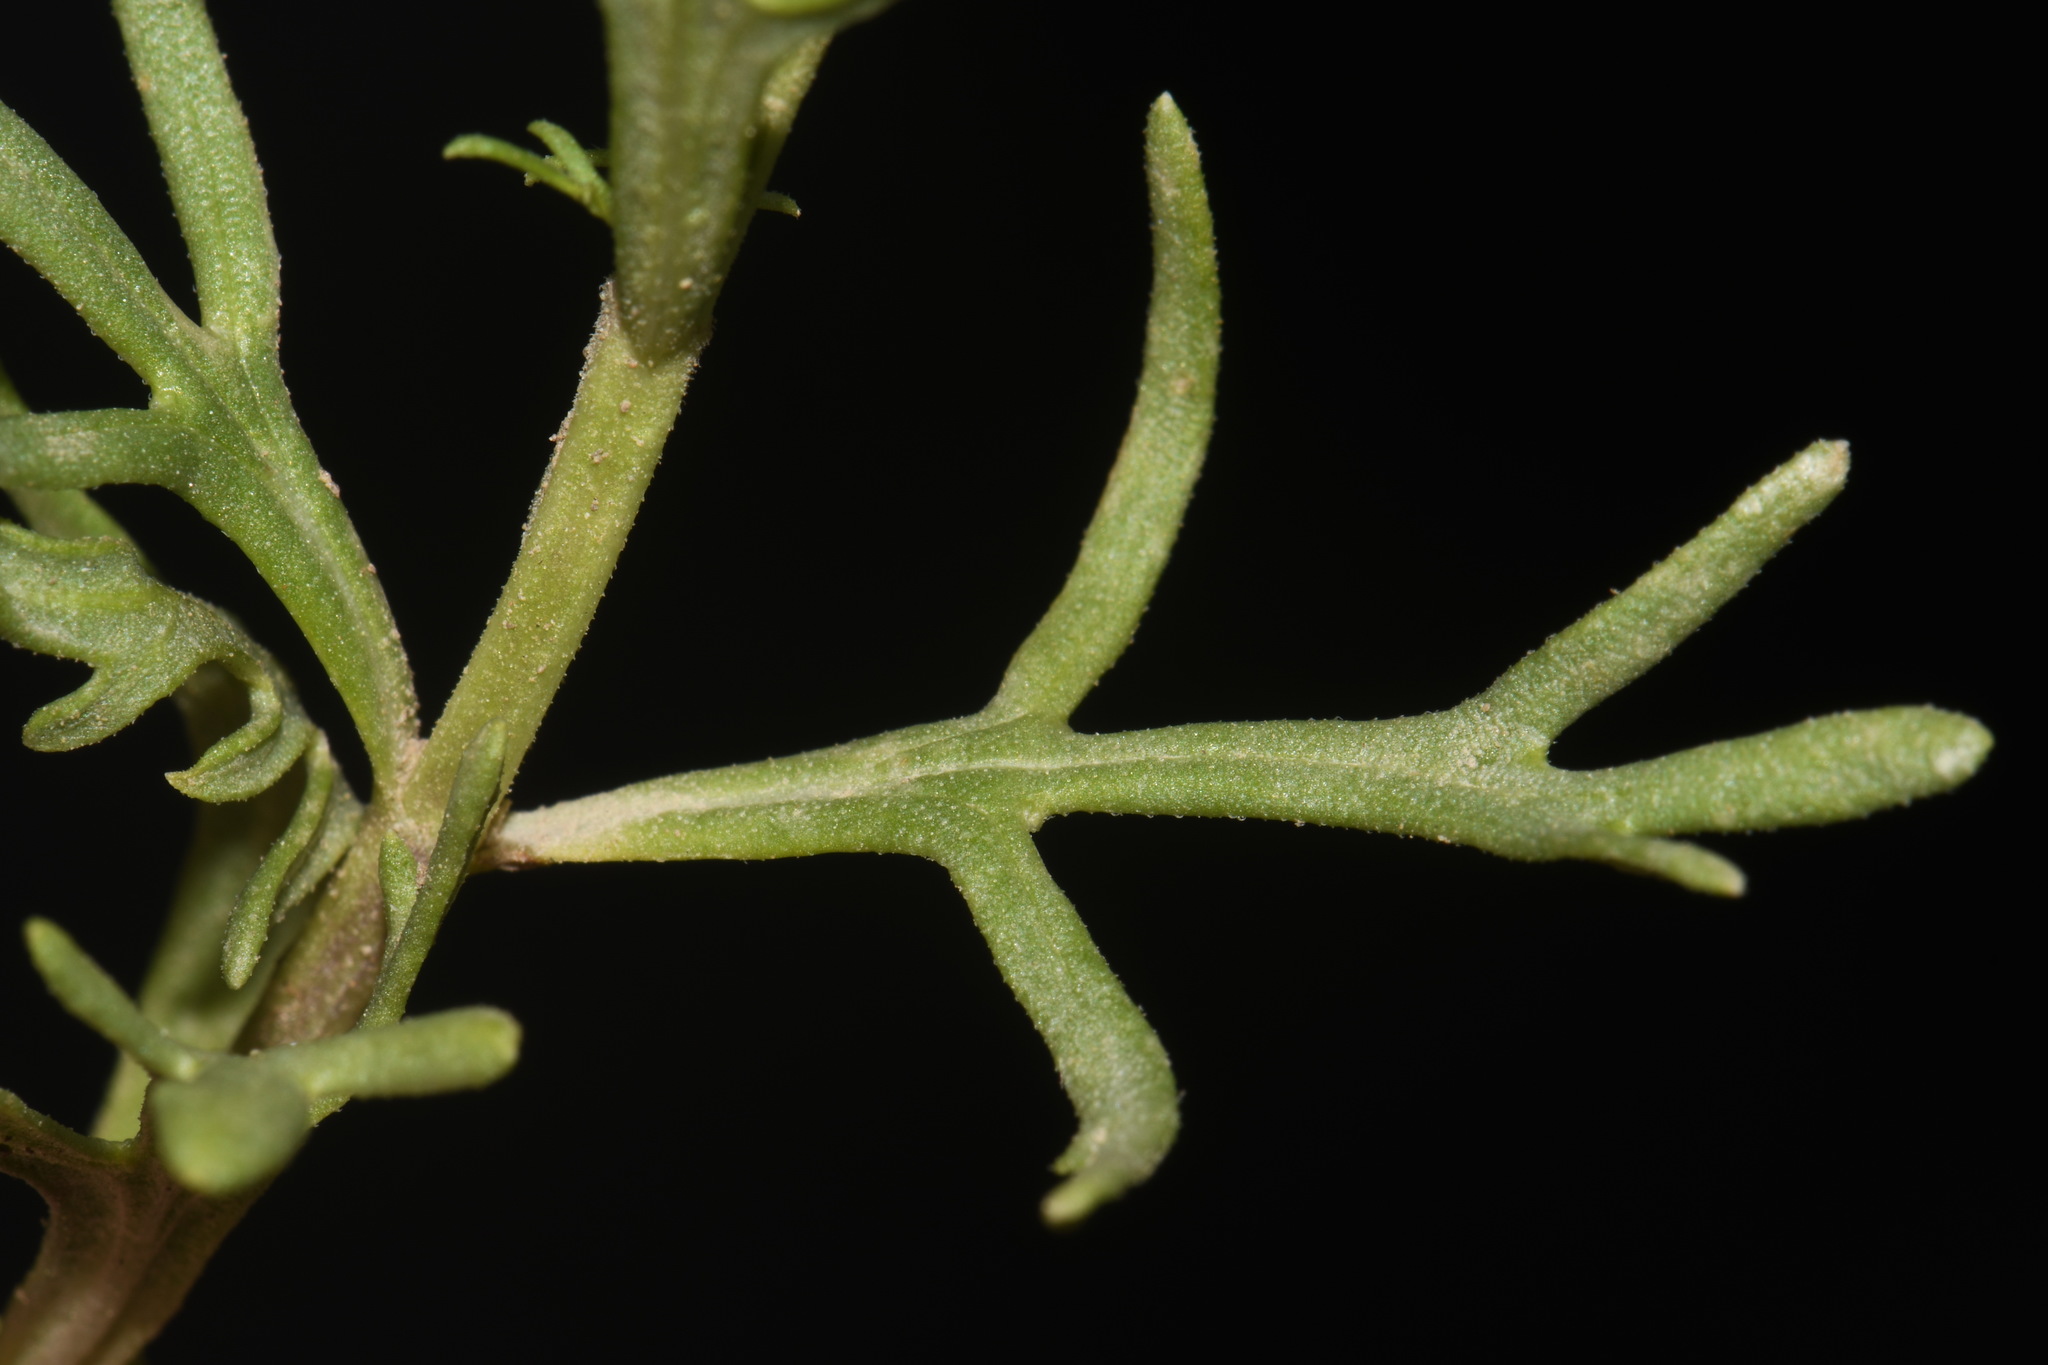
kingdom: Plantae
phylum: Tracheophyta
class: Magnoliopsida
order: Lamiales
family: Lamiaceae
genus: Teucrium
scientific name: Teucrium laciniatum
